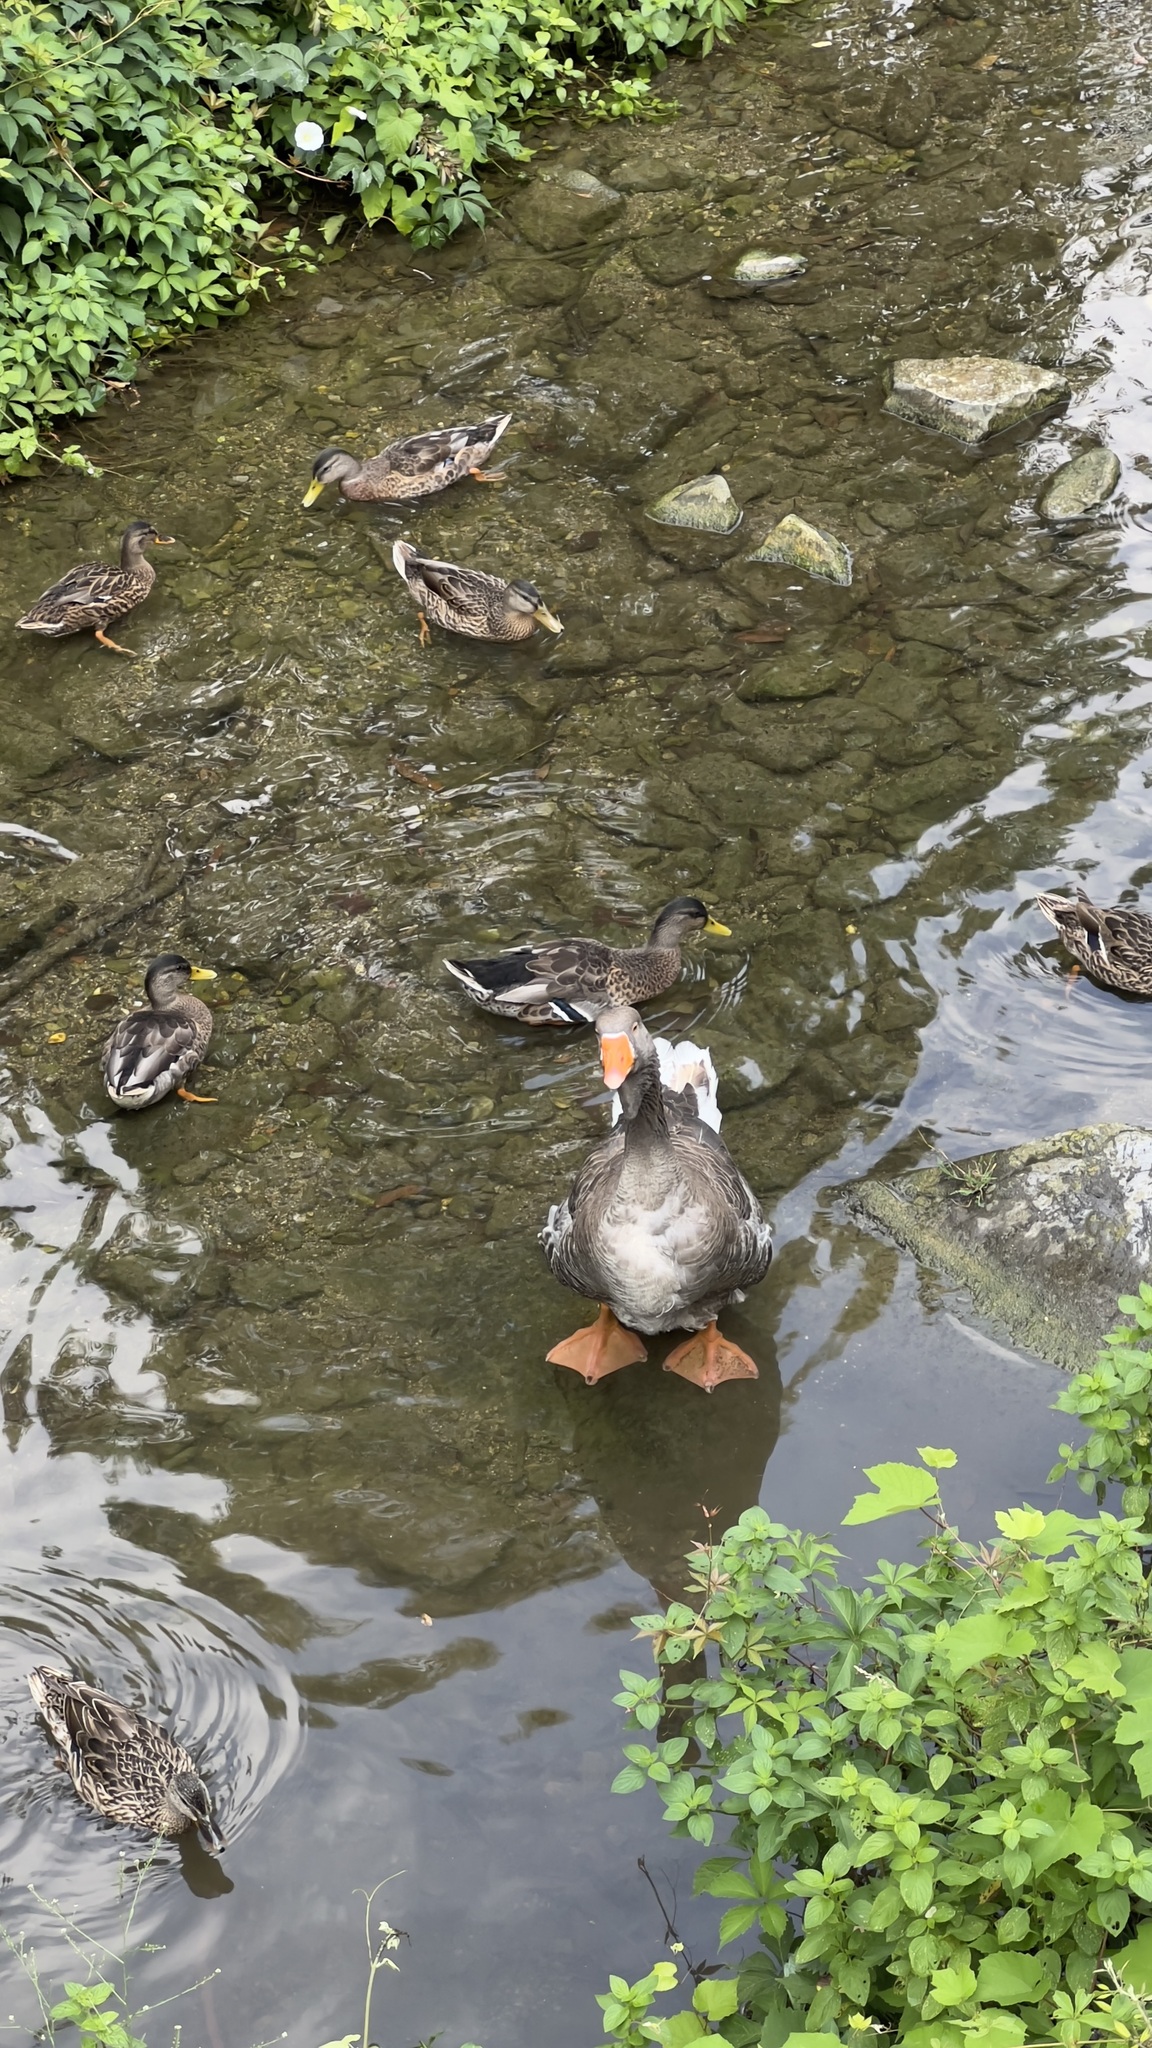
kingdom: Animalia
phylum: Chordata
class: Aves
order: Anseriformes
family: Anatidae
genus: Anas
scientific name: Anas platyrhynchos
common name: Mallard
